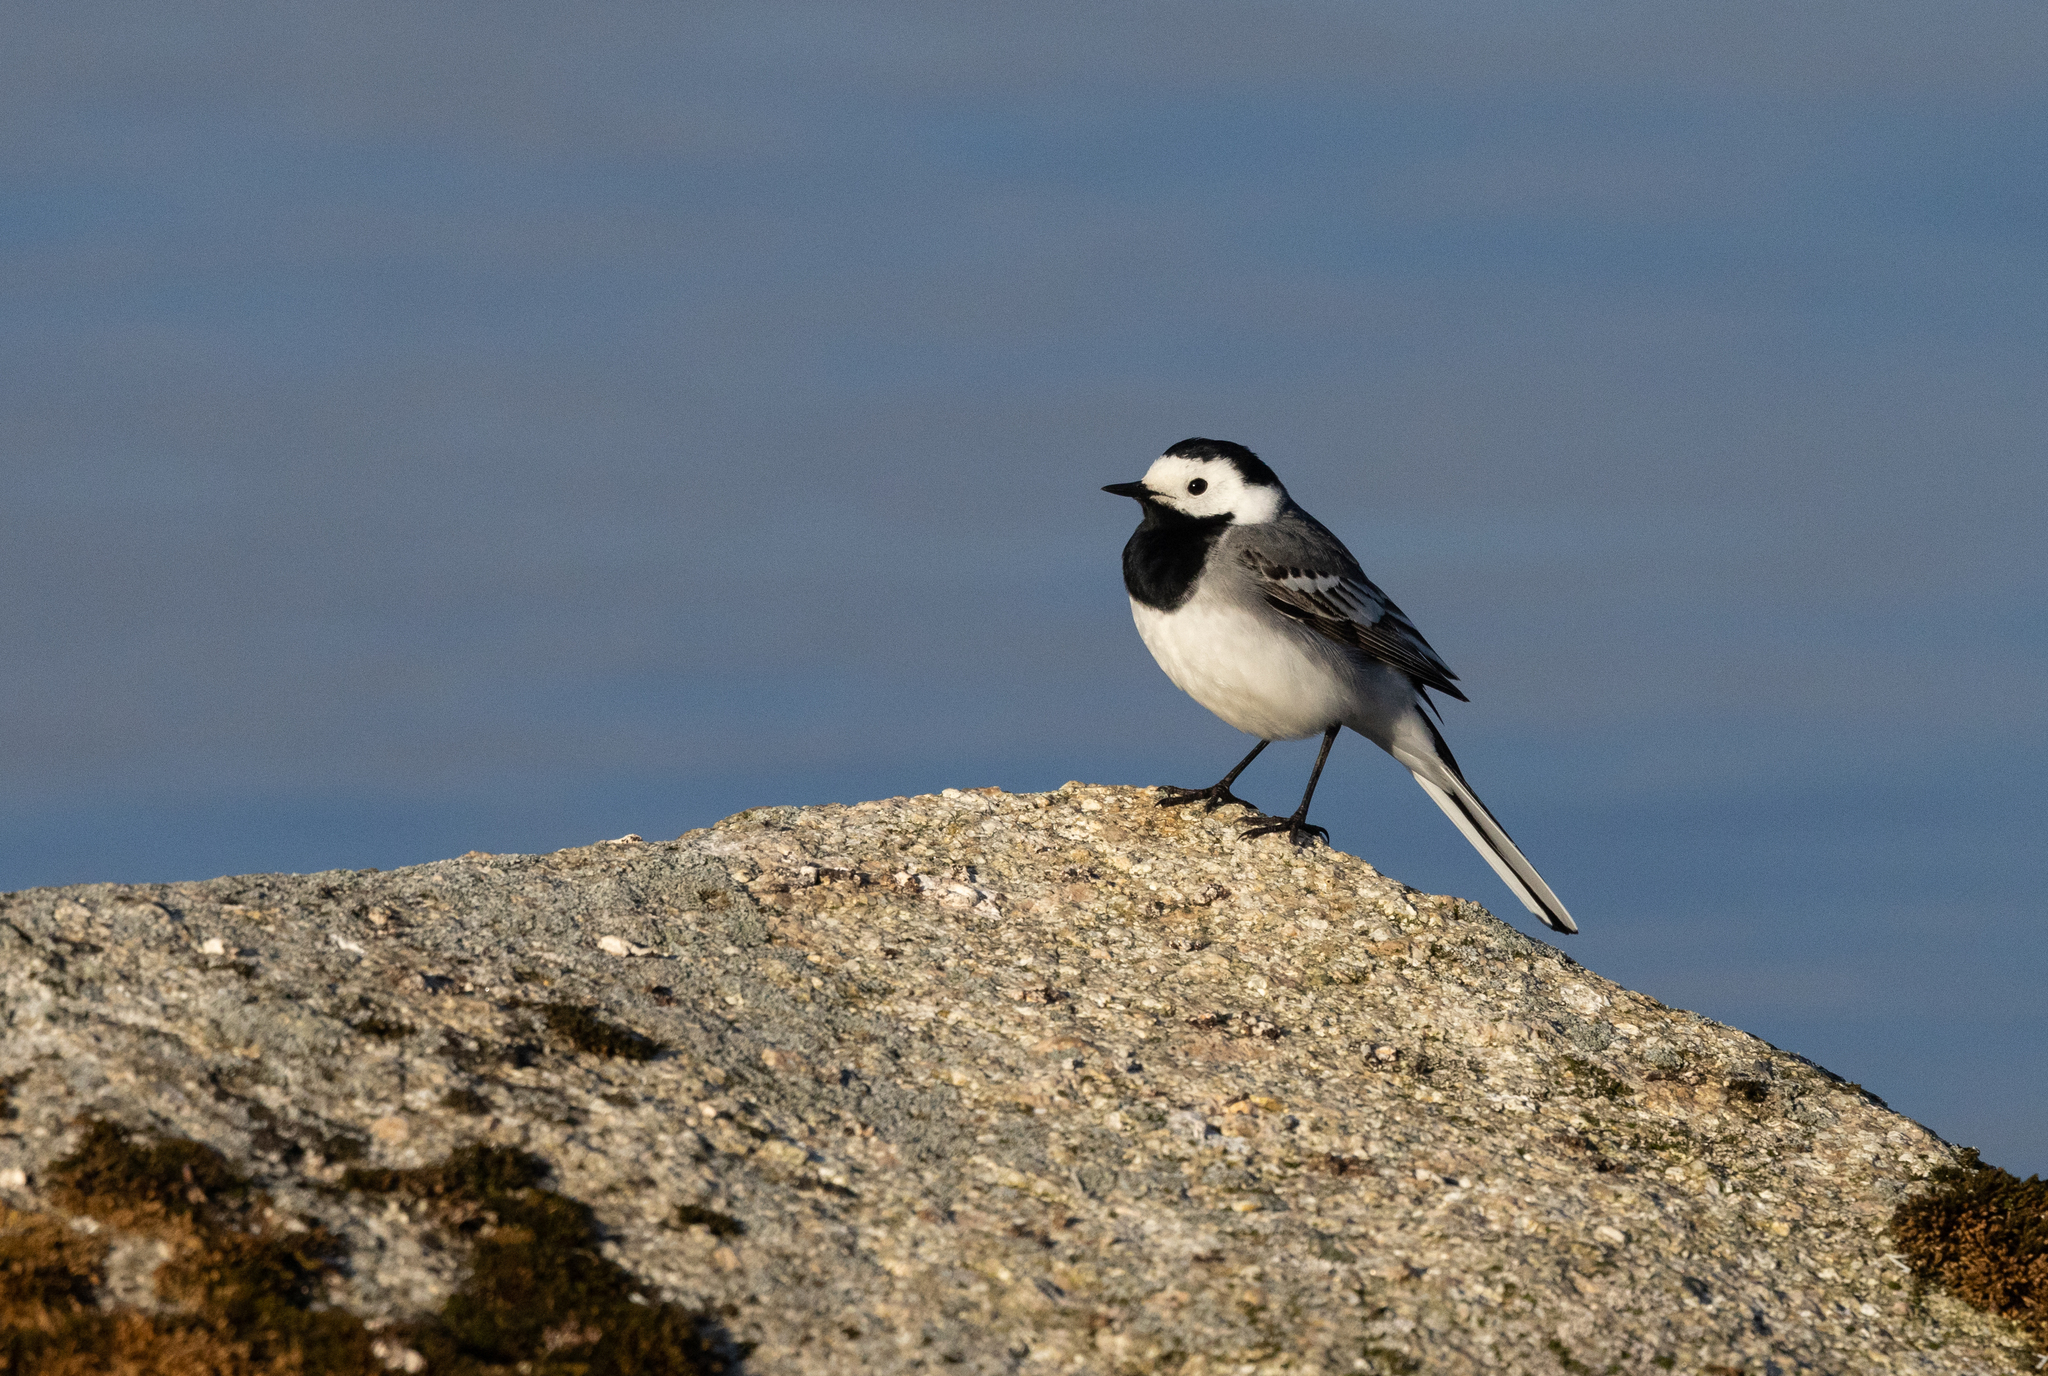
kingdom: Animalia
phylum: Chordata
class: Aves
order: Passeriformes
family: Motacillidae
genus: Motacilla
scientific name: Motacilla alba
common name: White wagtail
